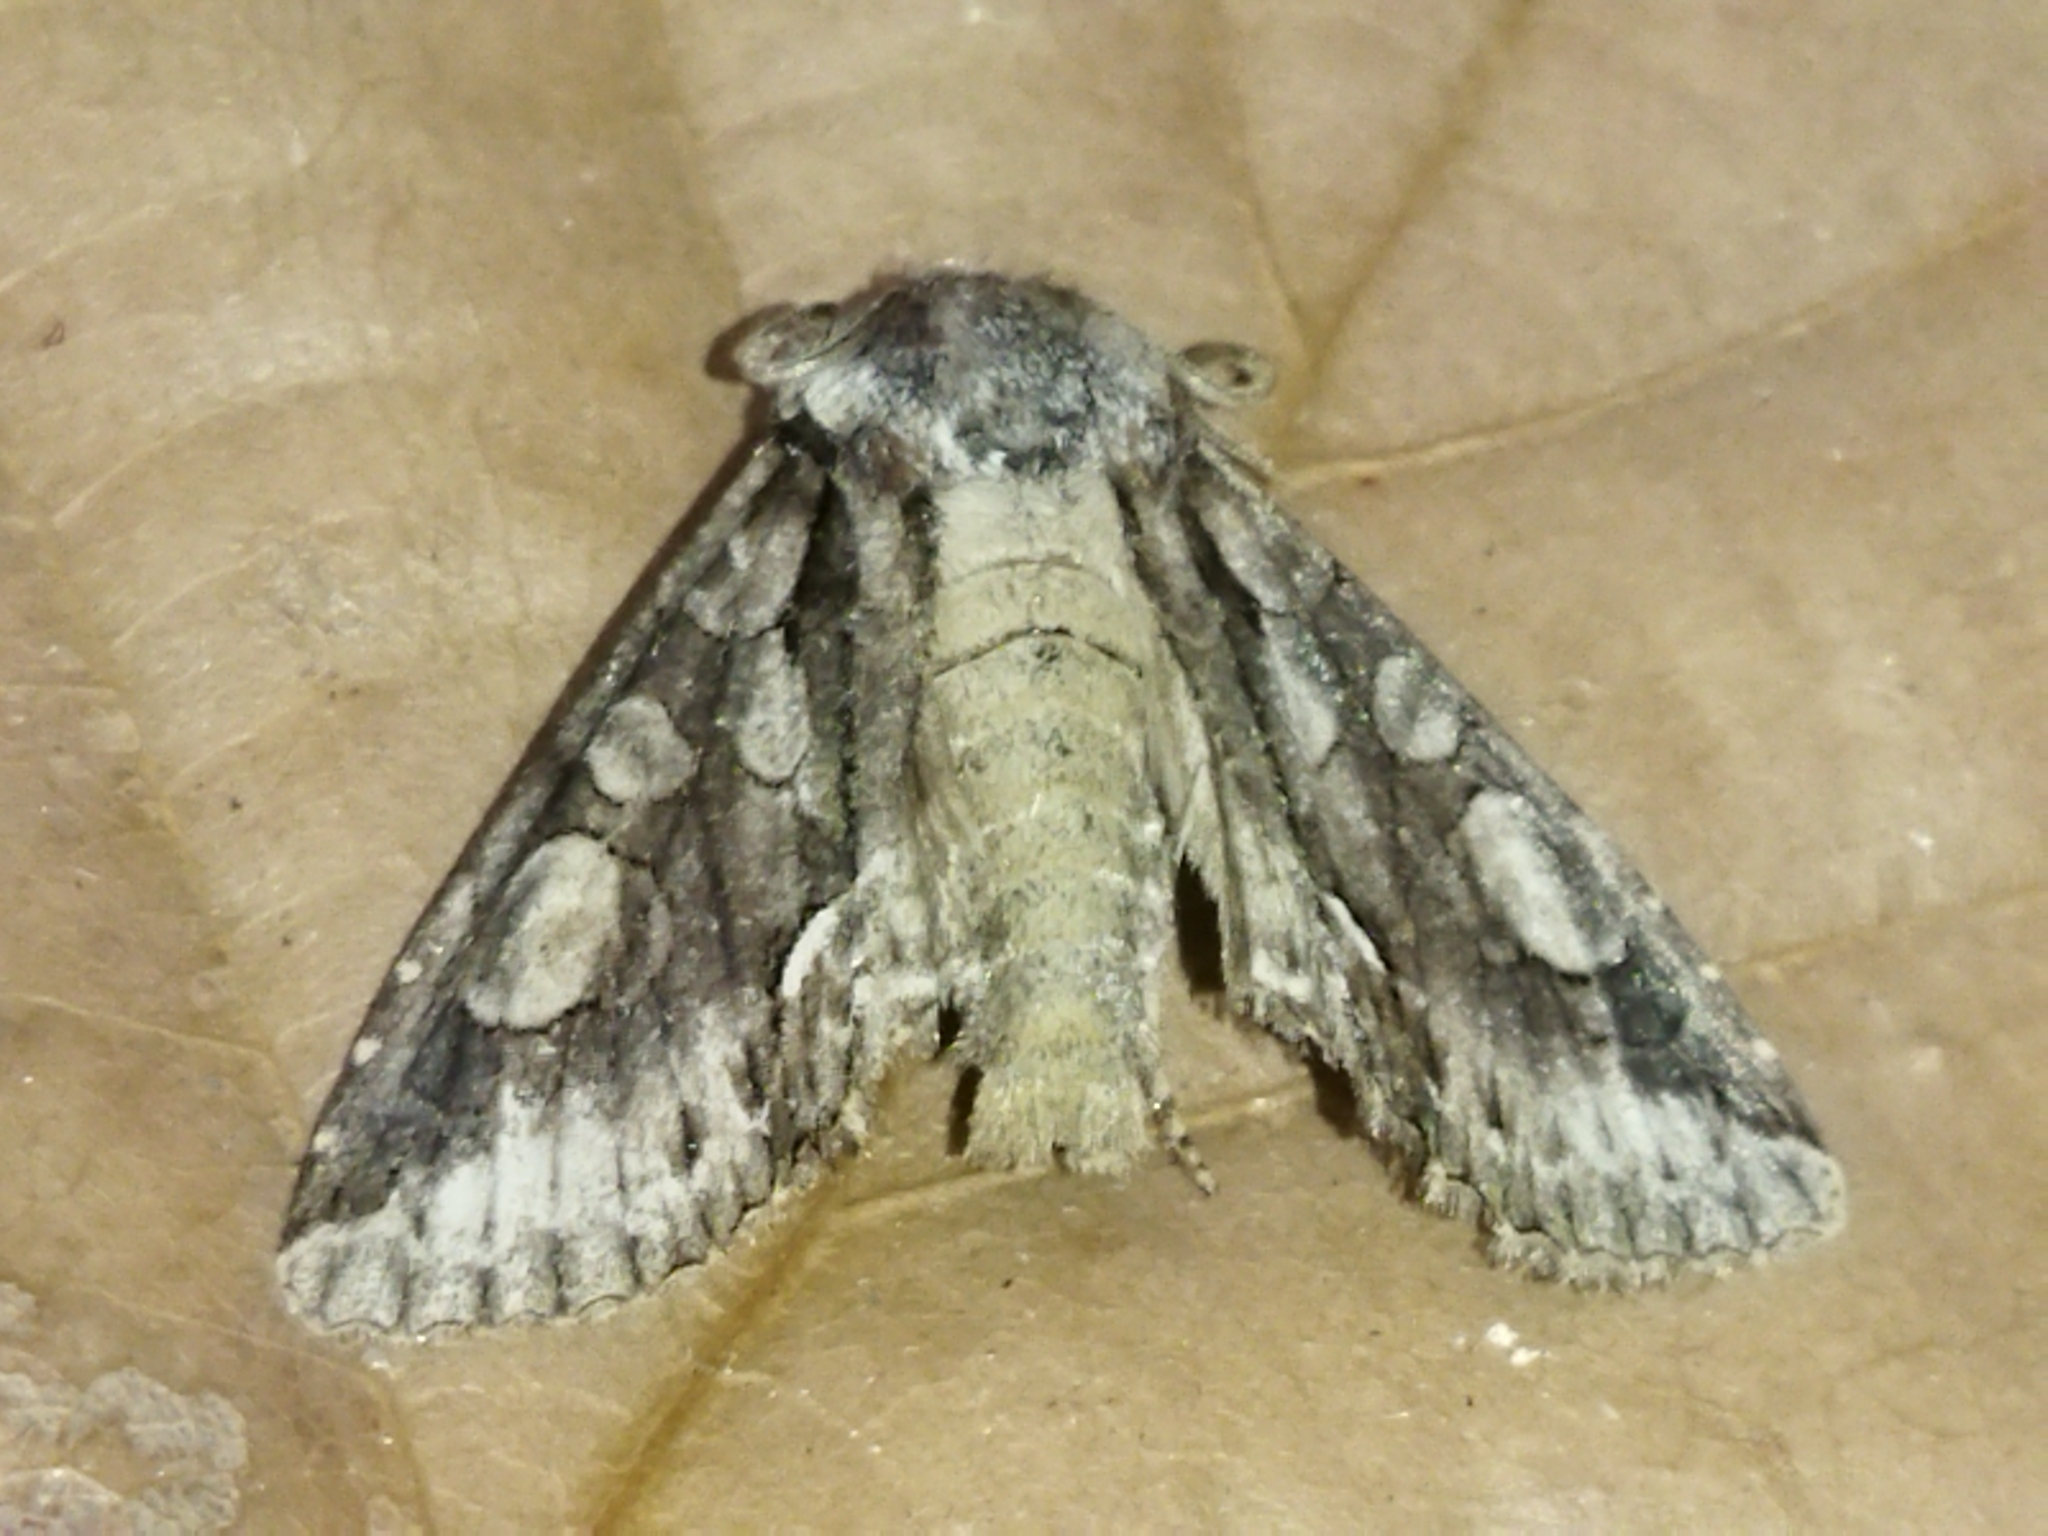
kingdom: Animalia
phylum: Arthropoda
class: Insecta
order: Lepidoptera
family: Noctuidae
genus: Allophyes
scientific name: Allophyes oxyacanthae
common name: Green-brindled crescent
